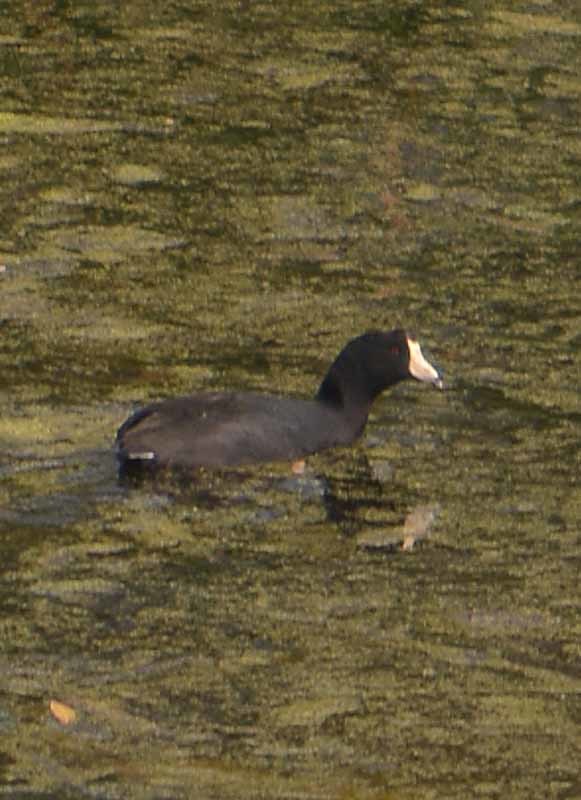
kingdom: Animalia
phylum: Chordata
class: Aves
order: Gruiformes
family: Rallidae
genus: Fulica
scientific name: Fulica americana
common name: American coot
